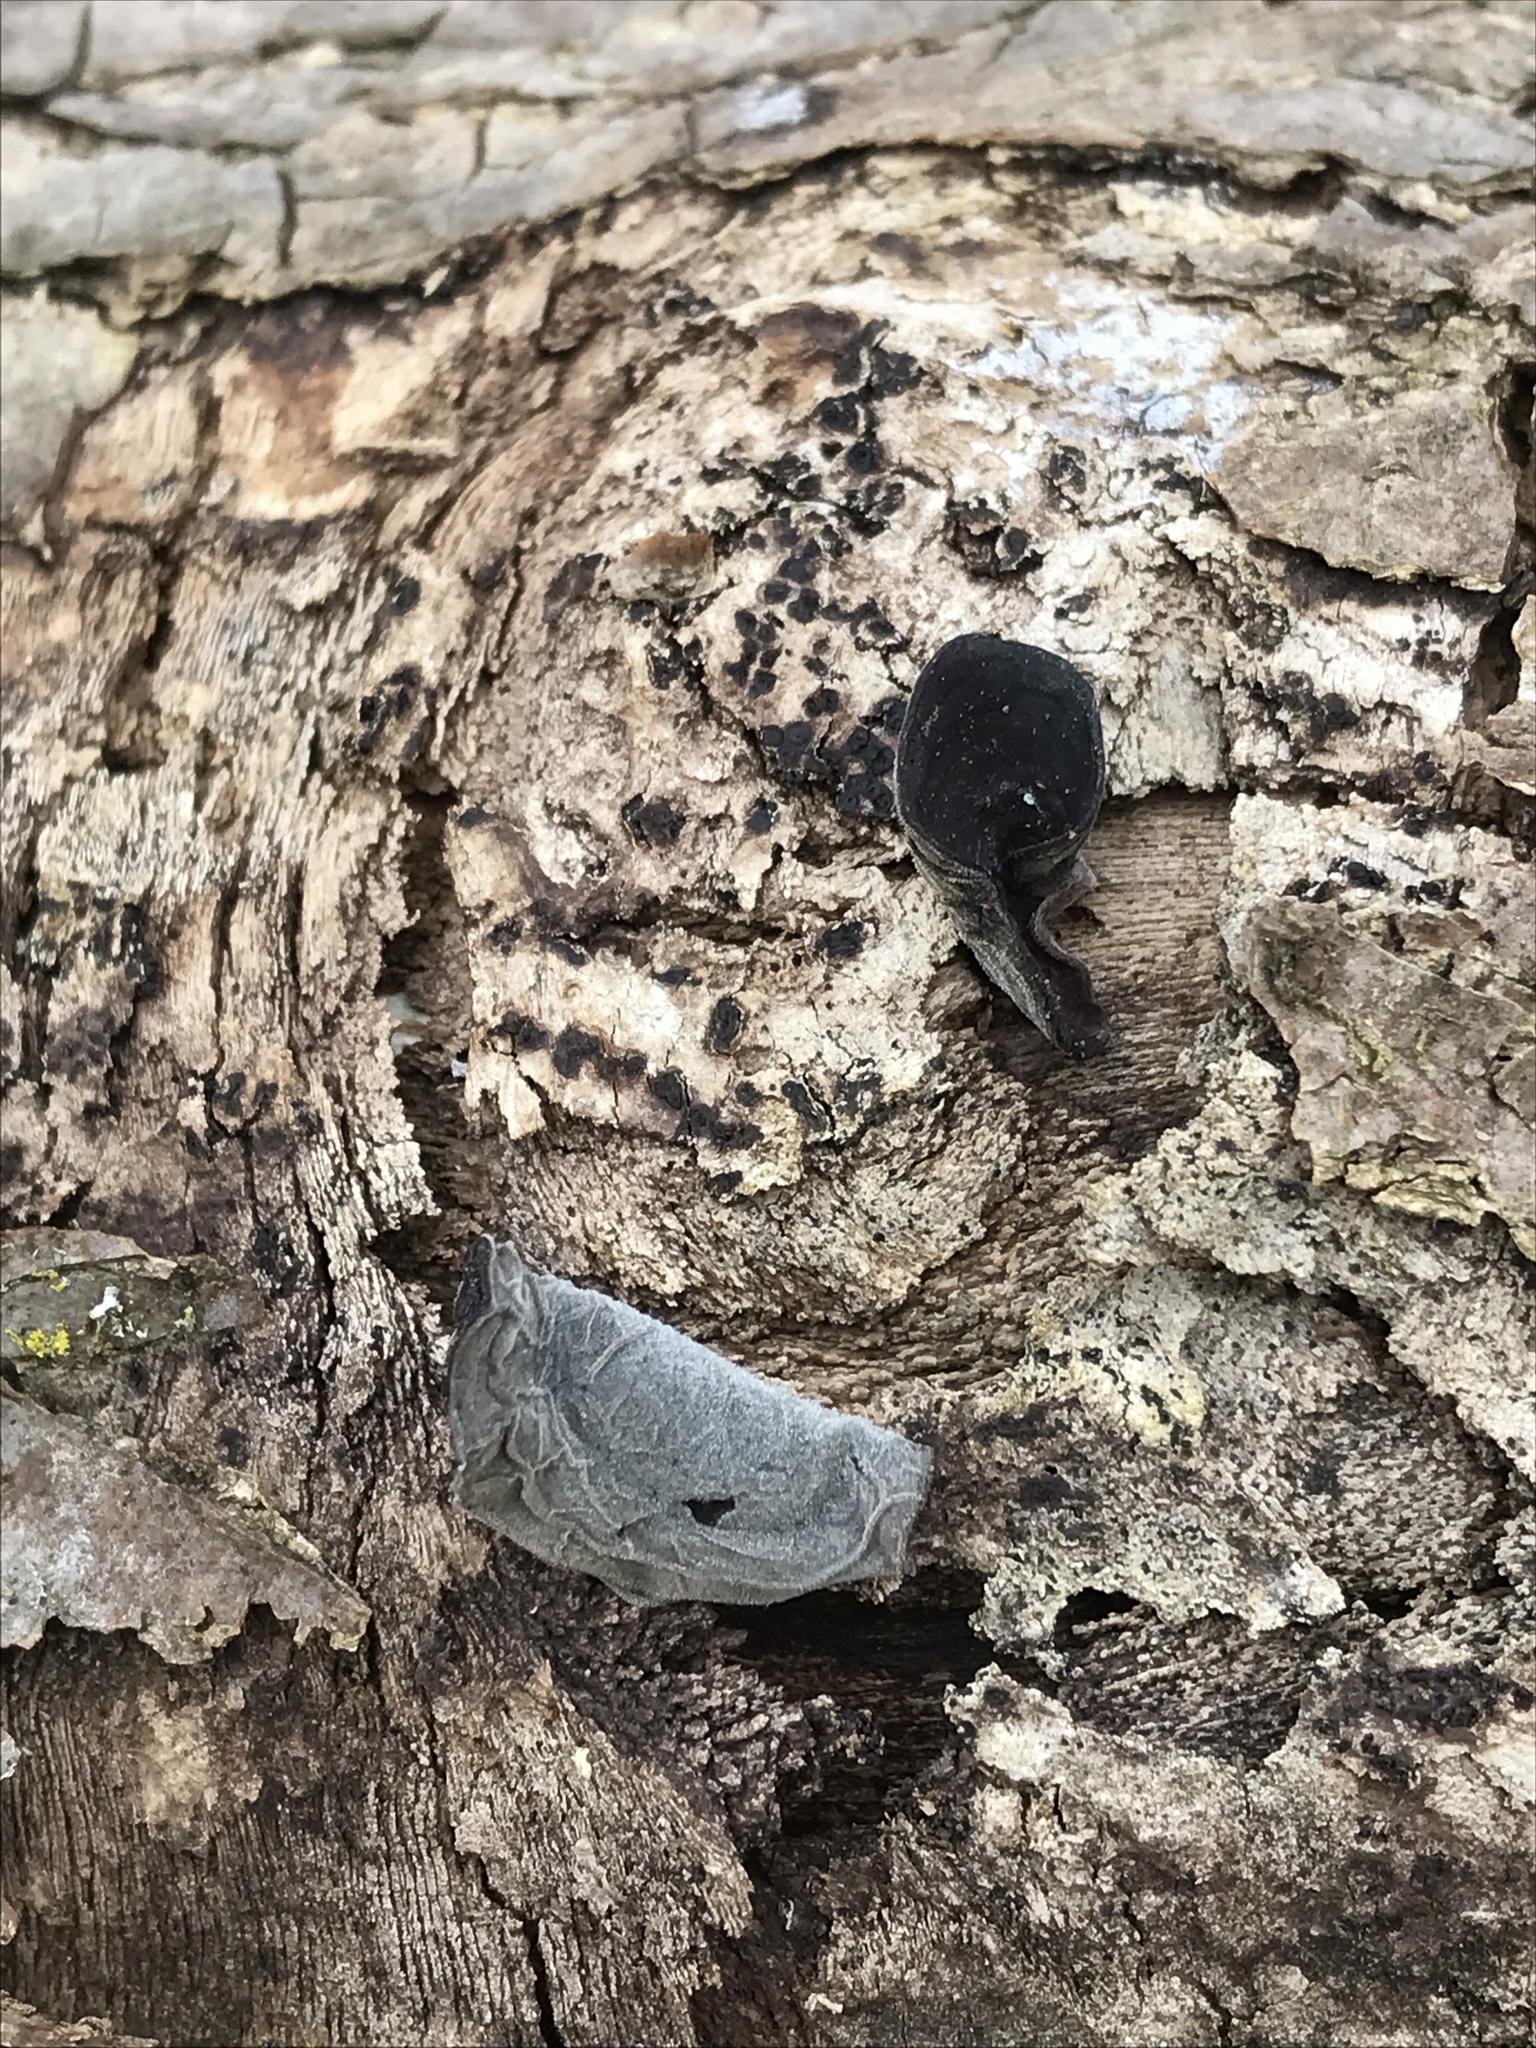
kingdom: Fungi
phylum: Basidiomycota
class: Agaricomycetes
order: Auriculariales
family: Auriculariaceae
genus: Auricularia
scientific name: Auricularia angiospermarum
